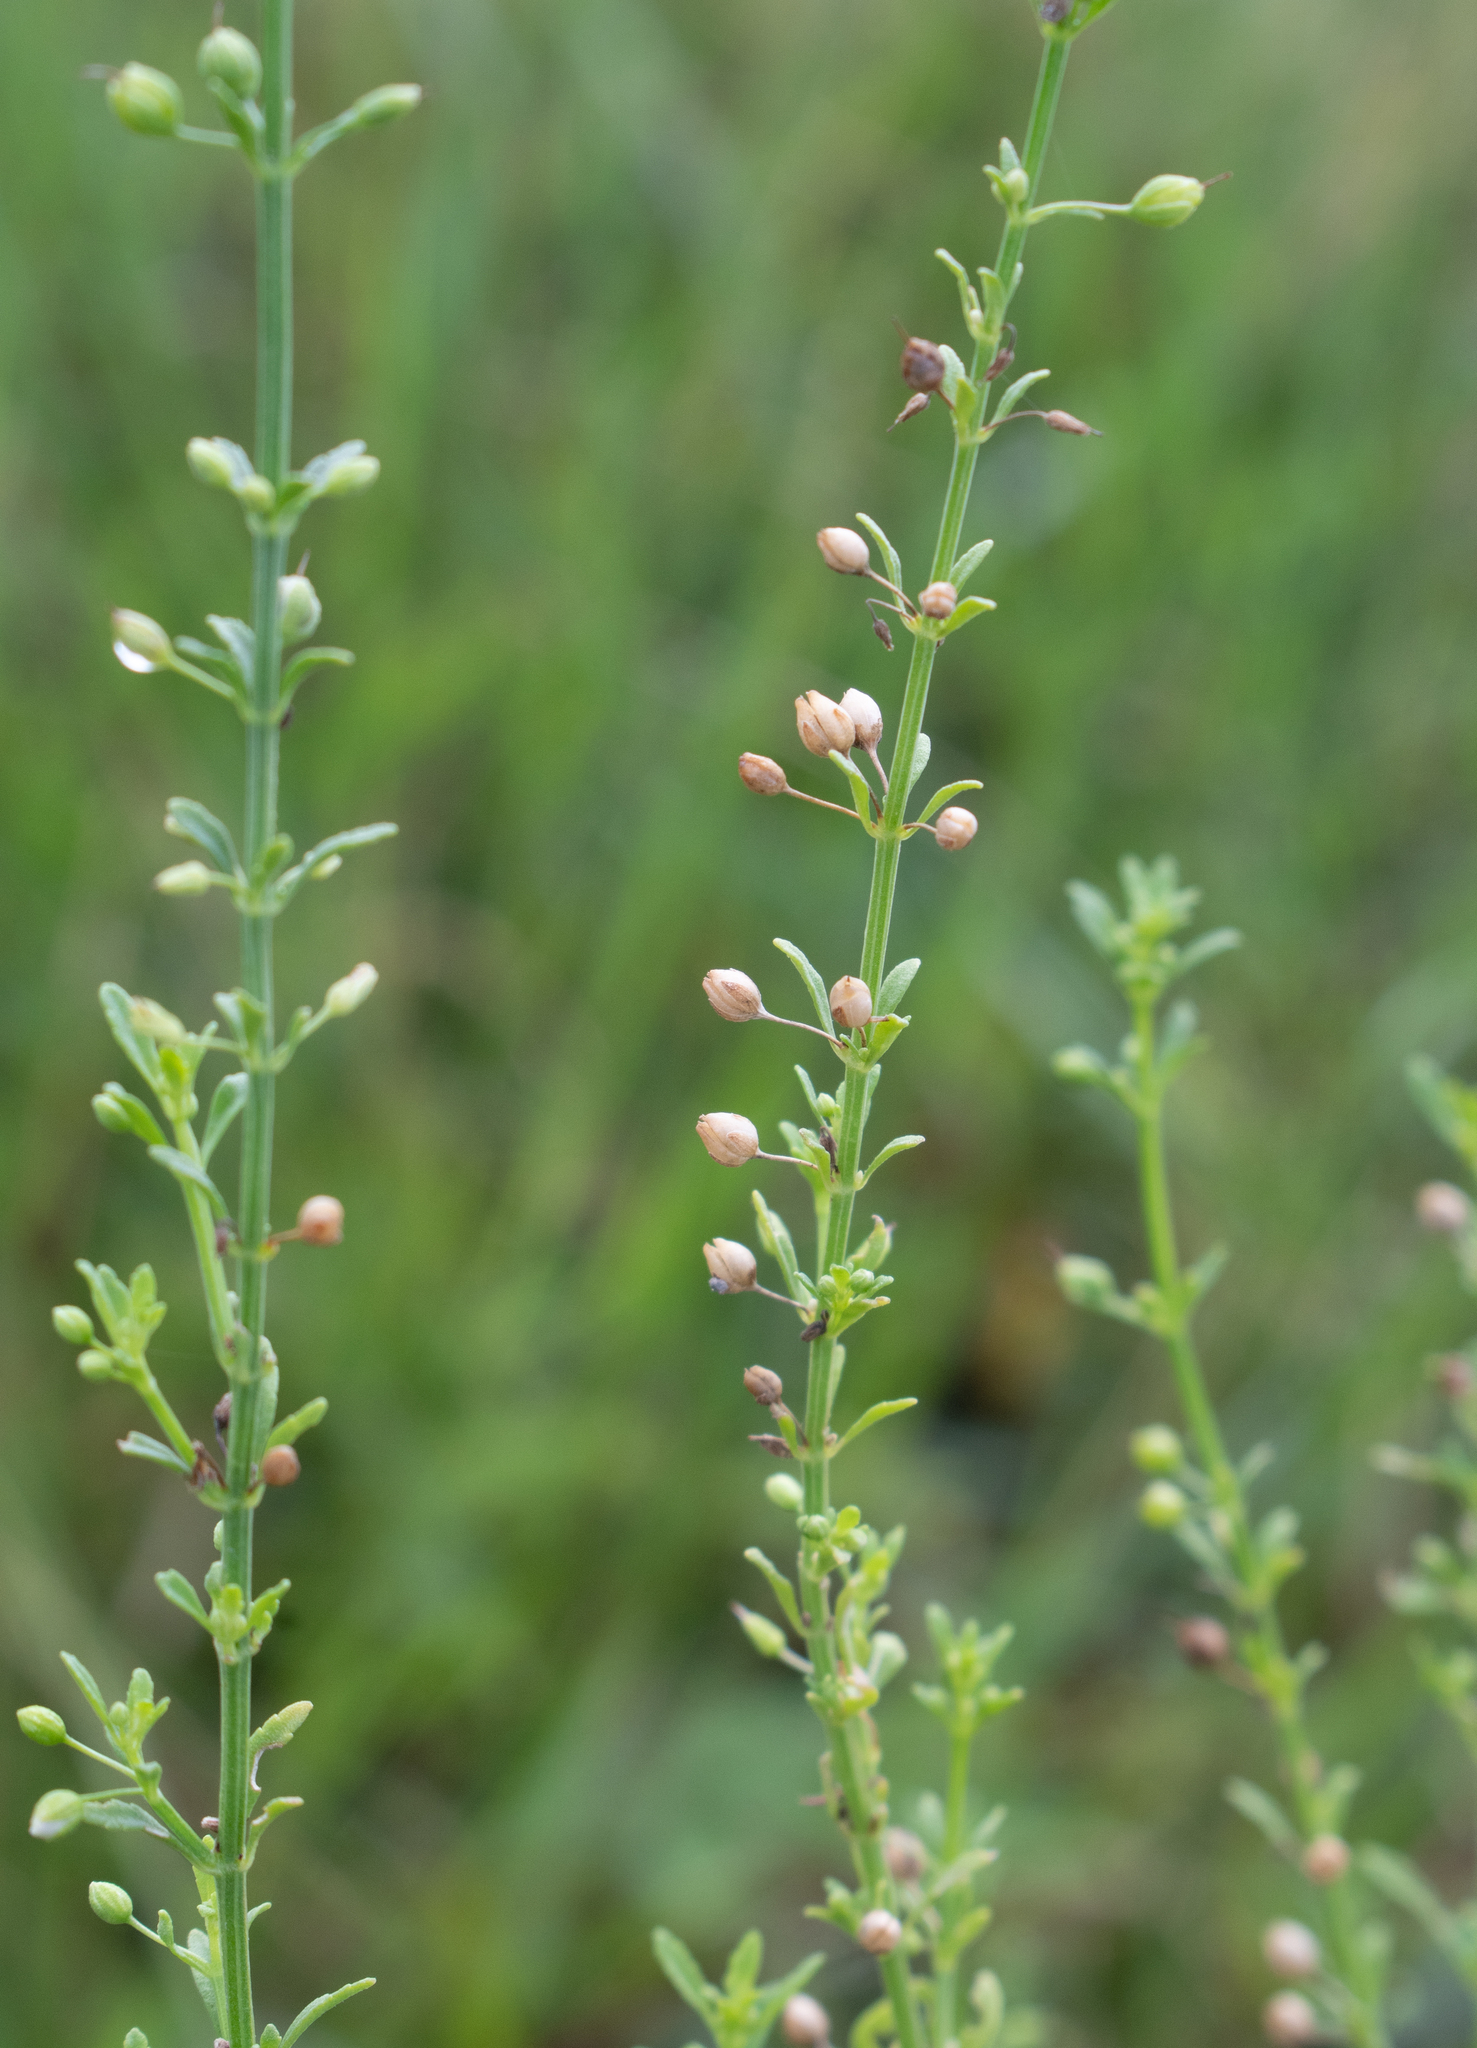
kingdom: Plantae
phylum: Tracheophyta
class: Magnoliopsida
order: Lamiales
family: Plantaginaceae
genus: Scoparia
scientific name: Scoparia dulcis
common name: Scoparia-weed
